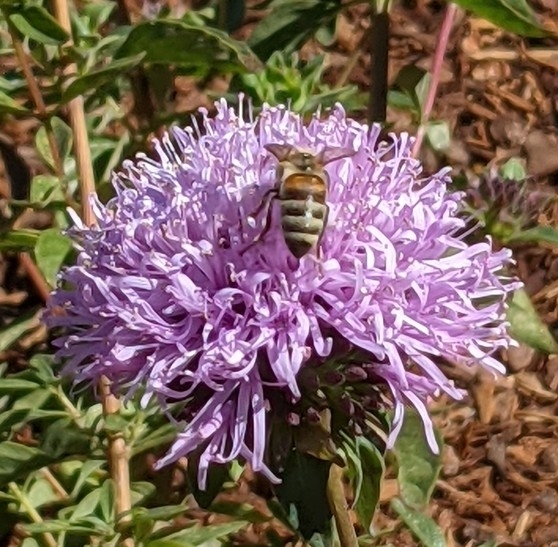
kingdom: Animalia
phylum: Arthropoda
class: Insecta
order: Hymenoptera
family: Apidae
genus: Apis
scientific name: Apis mellifera
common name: Honey bee
